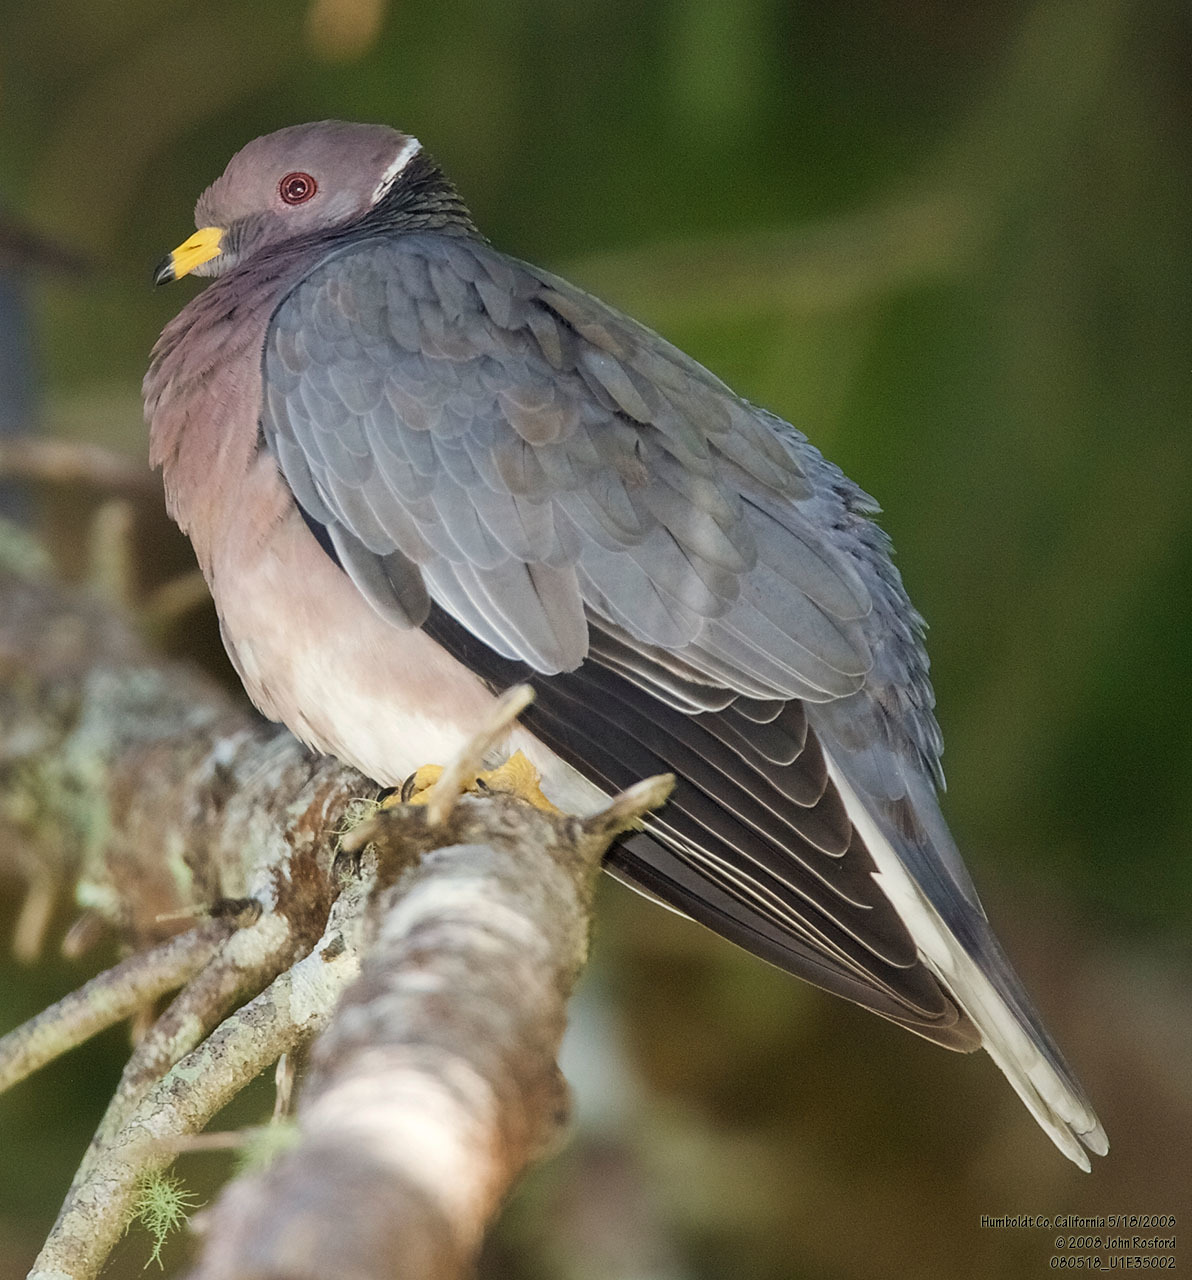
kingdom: Animalia
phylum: Chordata
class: Aves
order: Columbiformes
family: Columbidae
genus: Patagioenas
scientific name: Patagioenas fasciata
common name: Band-tailed pigeon
